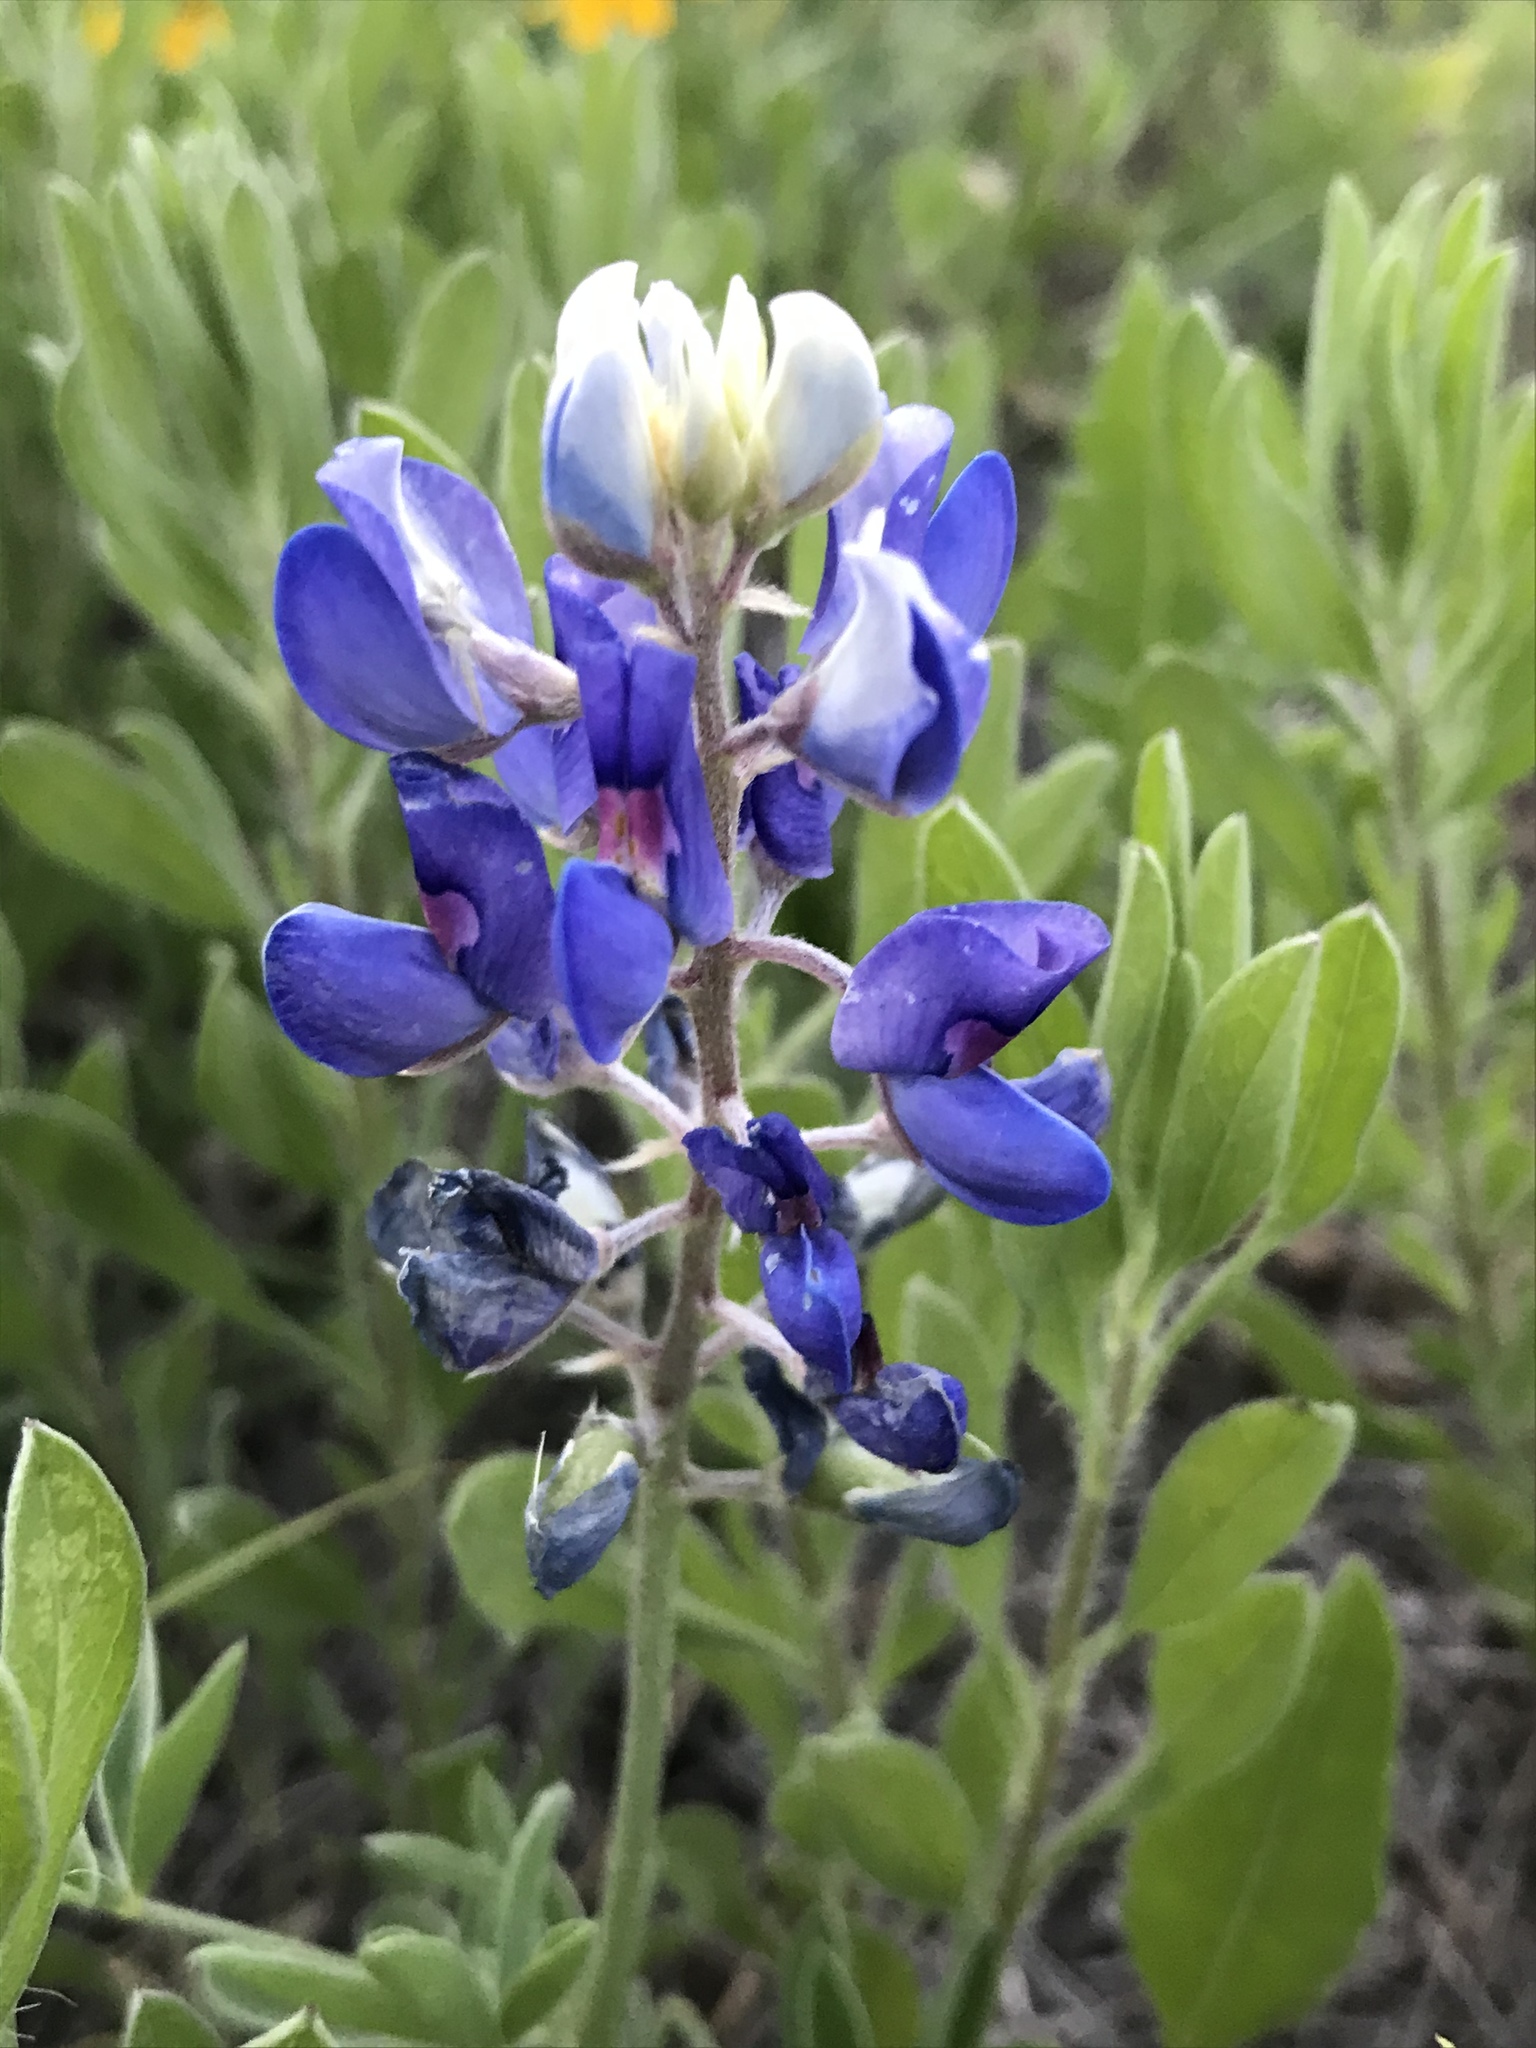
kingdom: Plantae
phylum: Tracheophyta
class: Magnoliopsida
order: Fabales
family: Fabaceae
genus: Lupinus
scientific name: Lupinus texensis
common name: Texas bluebonnet
